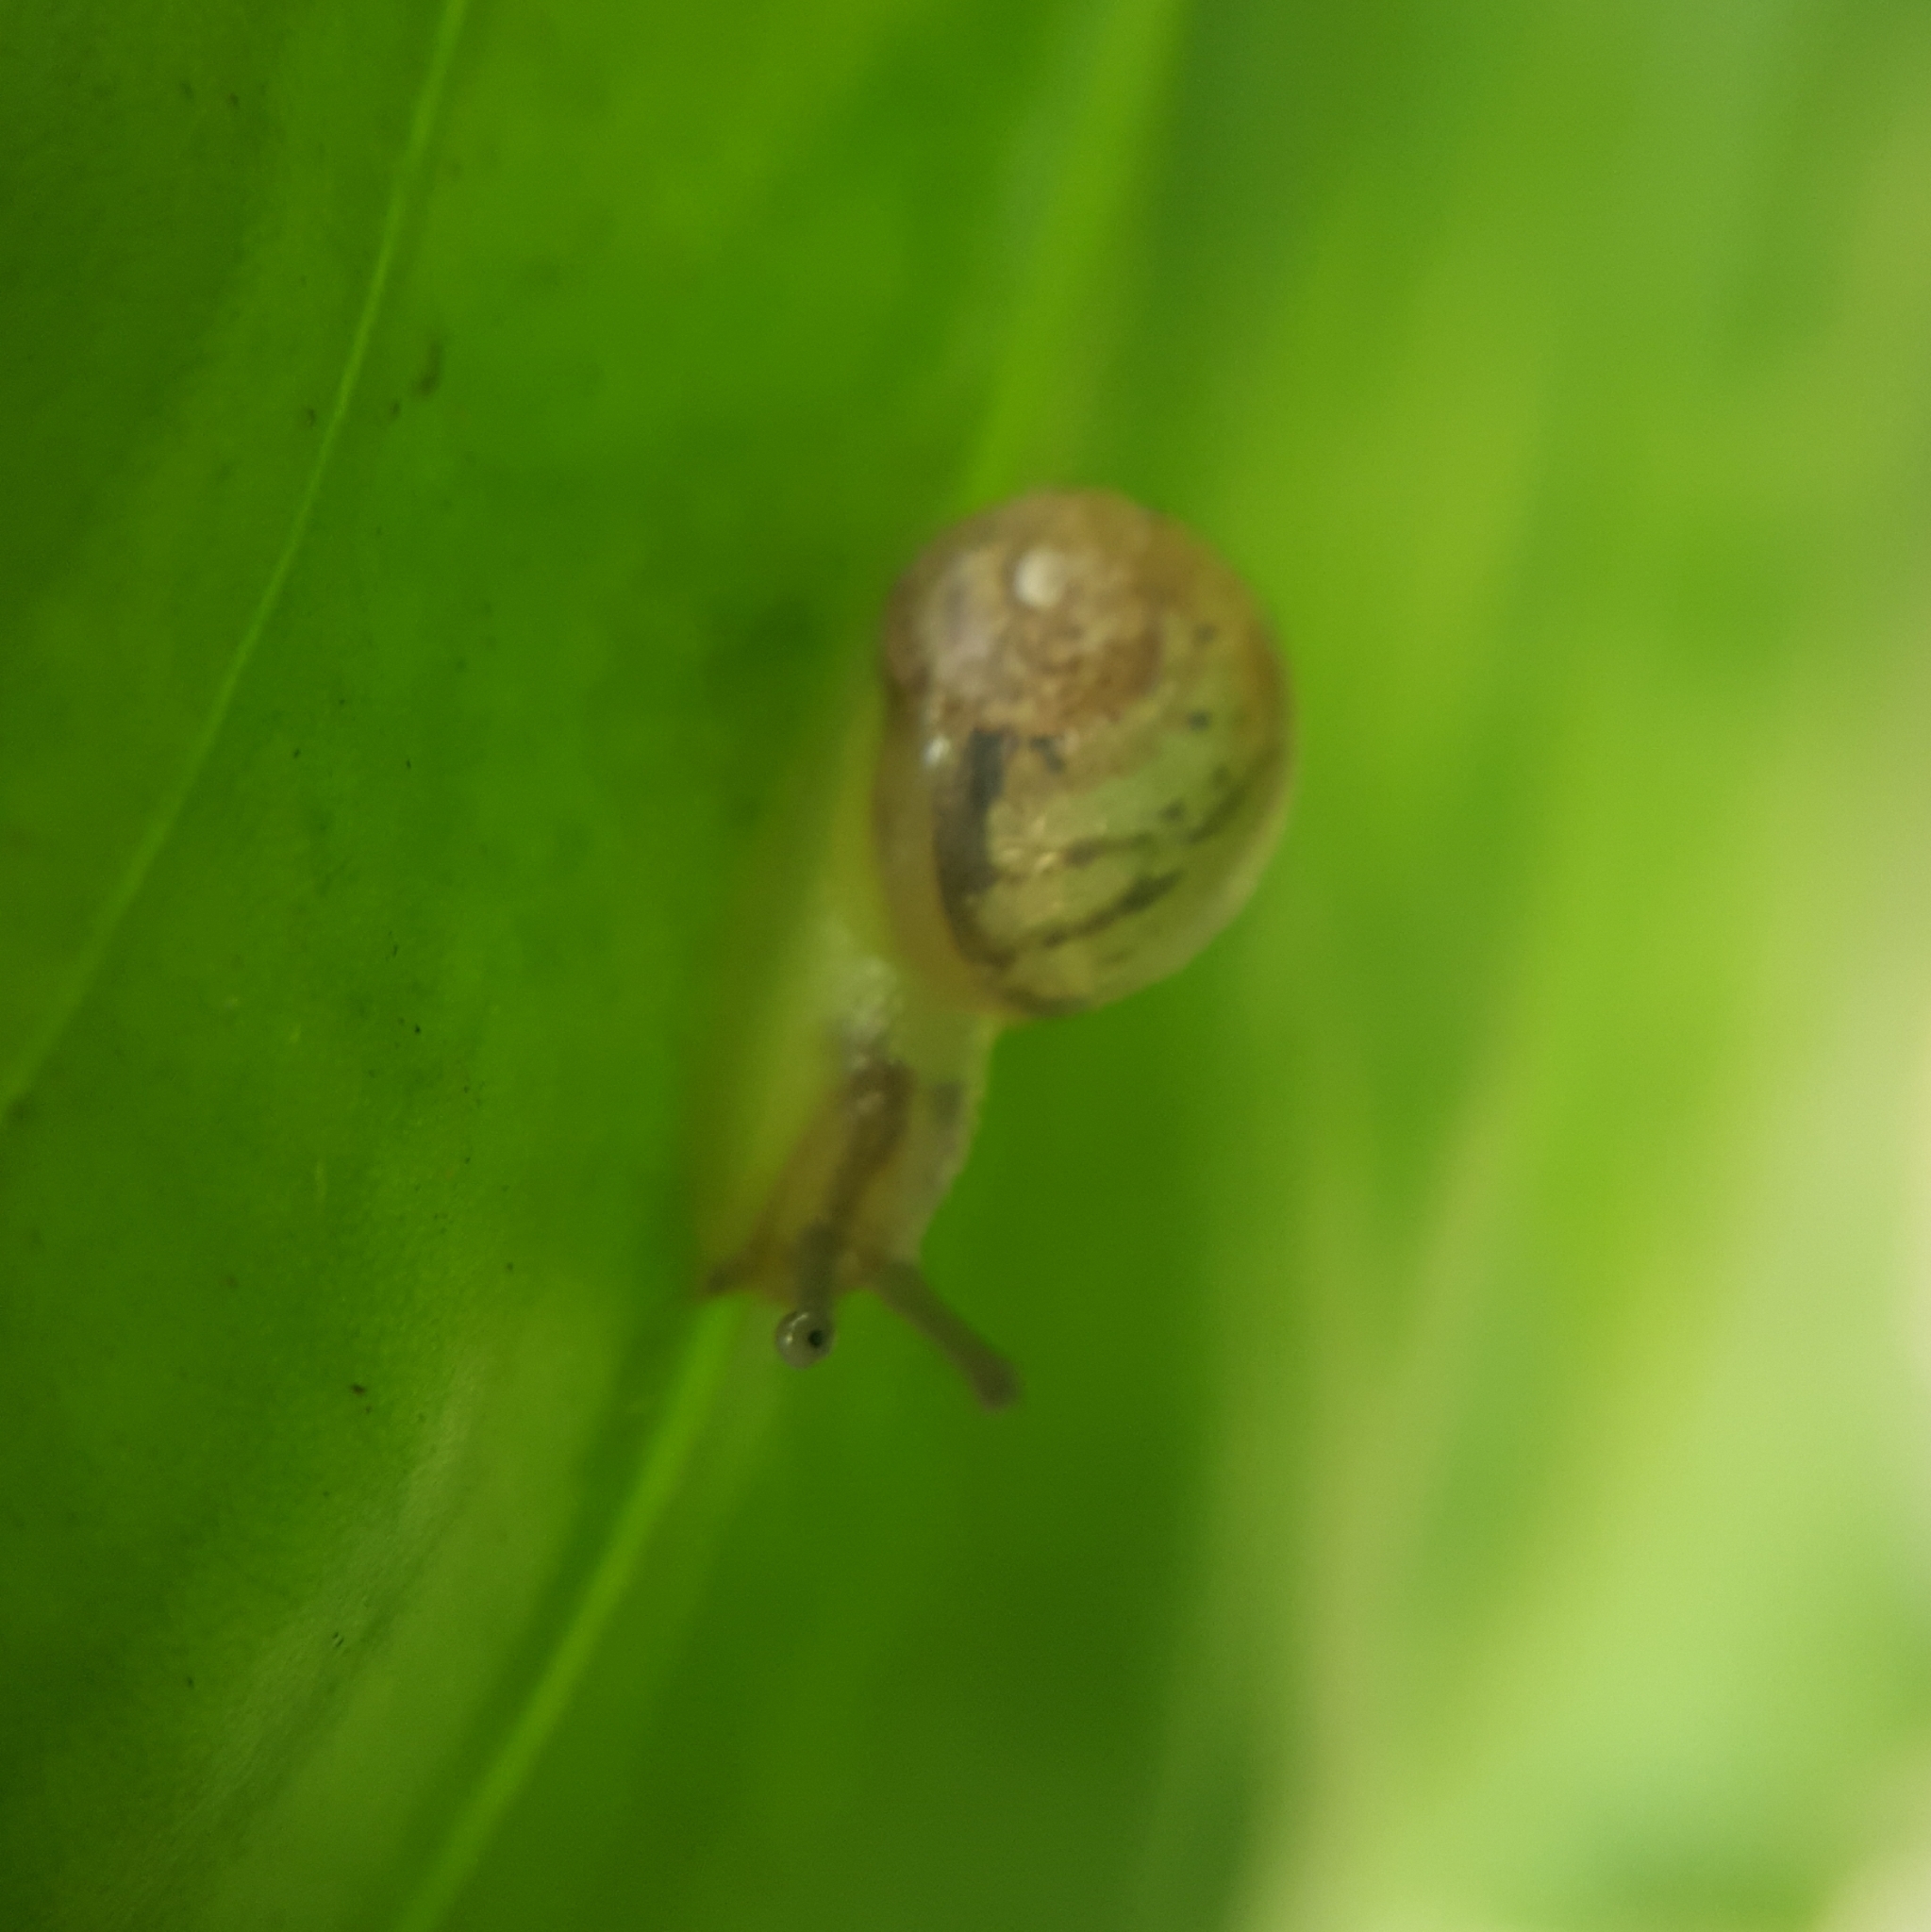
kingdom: Animalia
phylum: Mollusca
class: Gastropoda
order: Stylommatophora
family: Helicidae
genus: Cornu
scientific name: Cornu aspersum
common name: Brown garden snail
